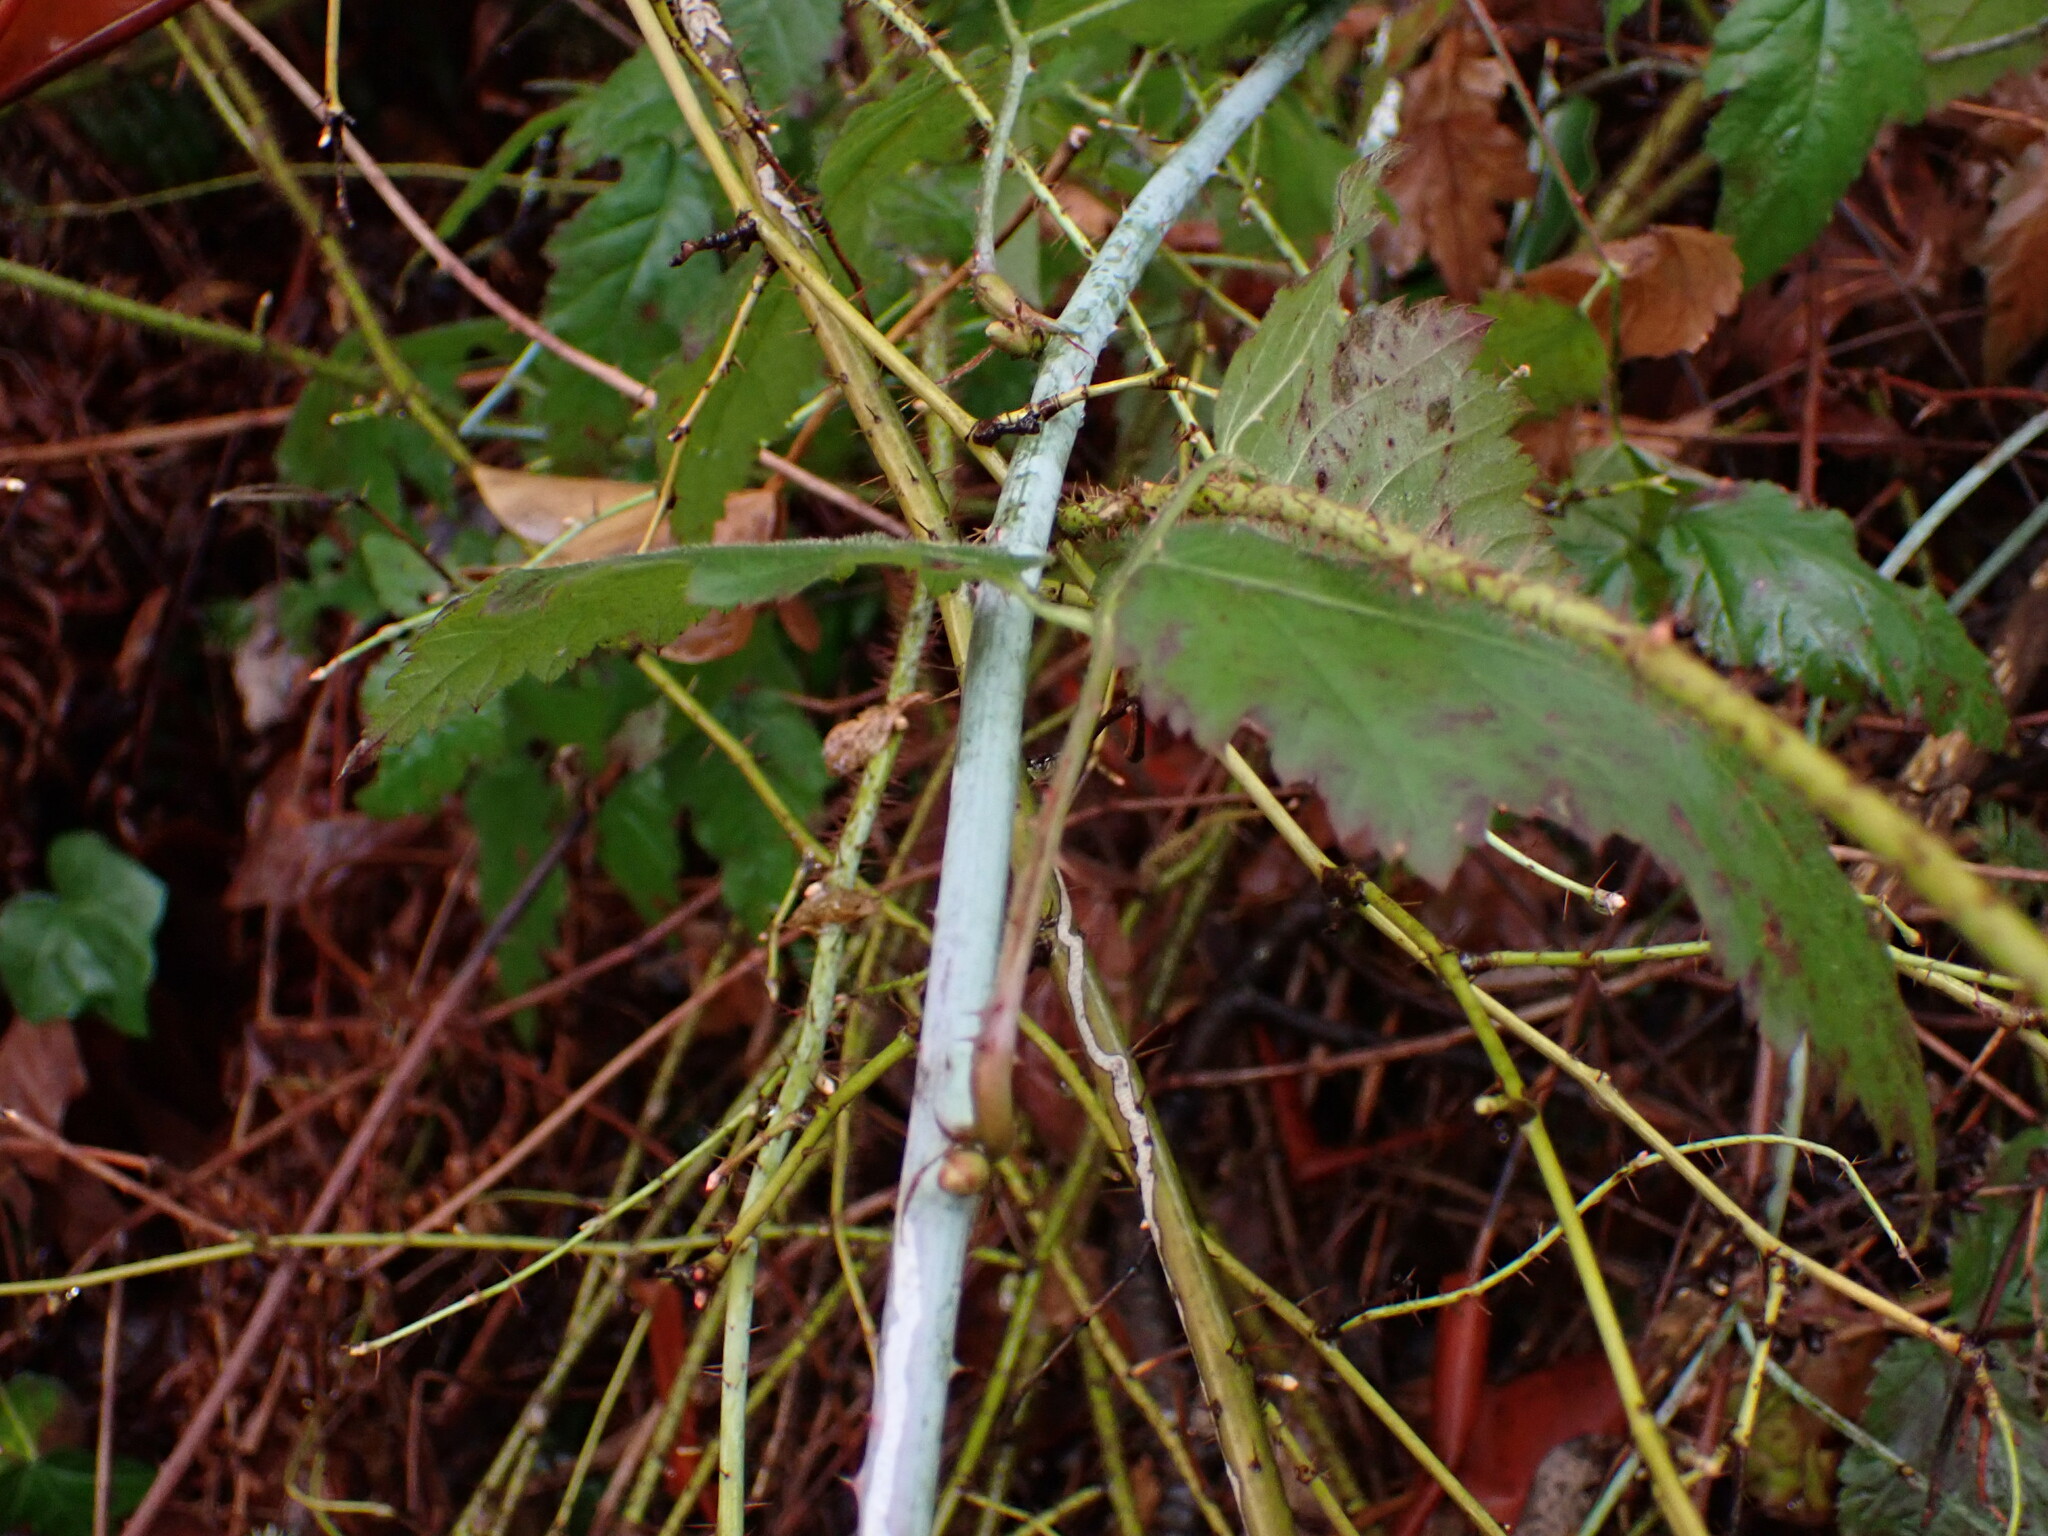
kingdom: Plantae
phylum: Tracheophyta
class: Magnoliopsida
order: Rosales
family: Rosaceae
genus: Rubus
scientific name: Rubus ursinus
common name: Pacific blackberry
